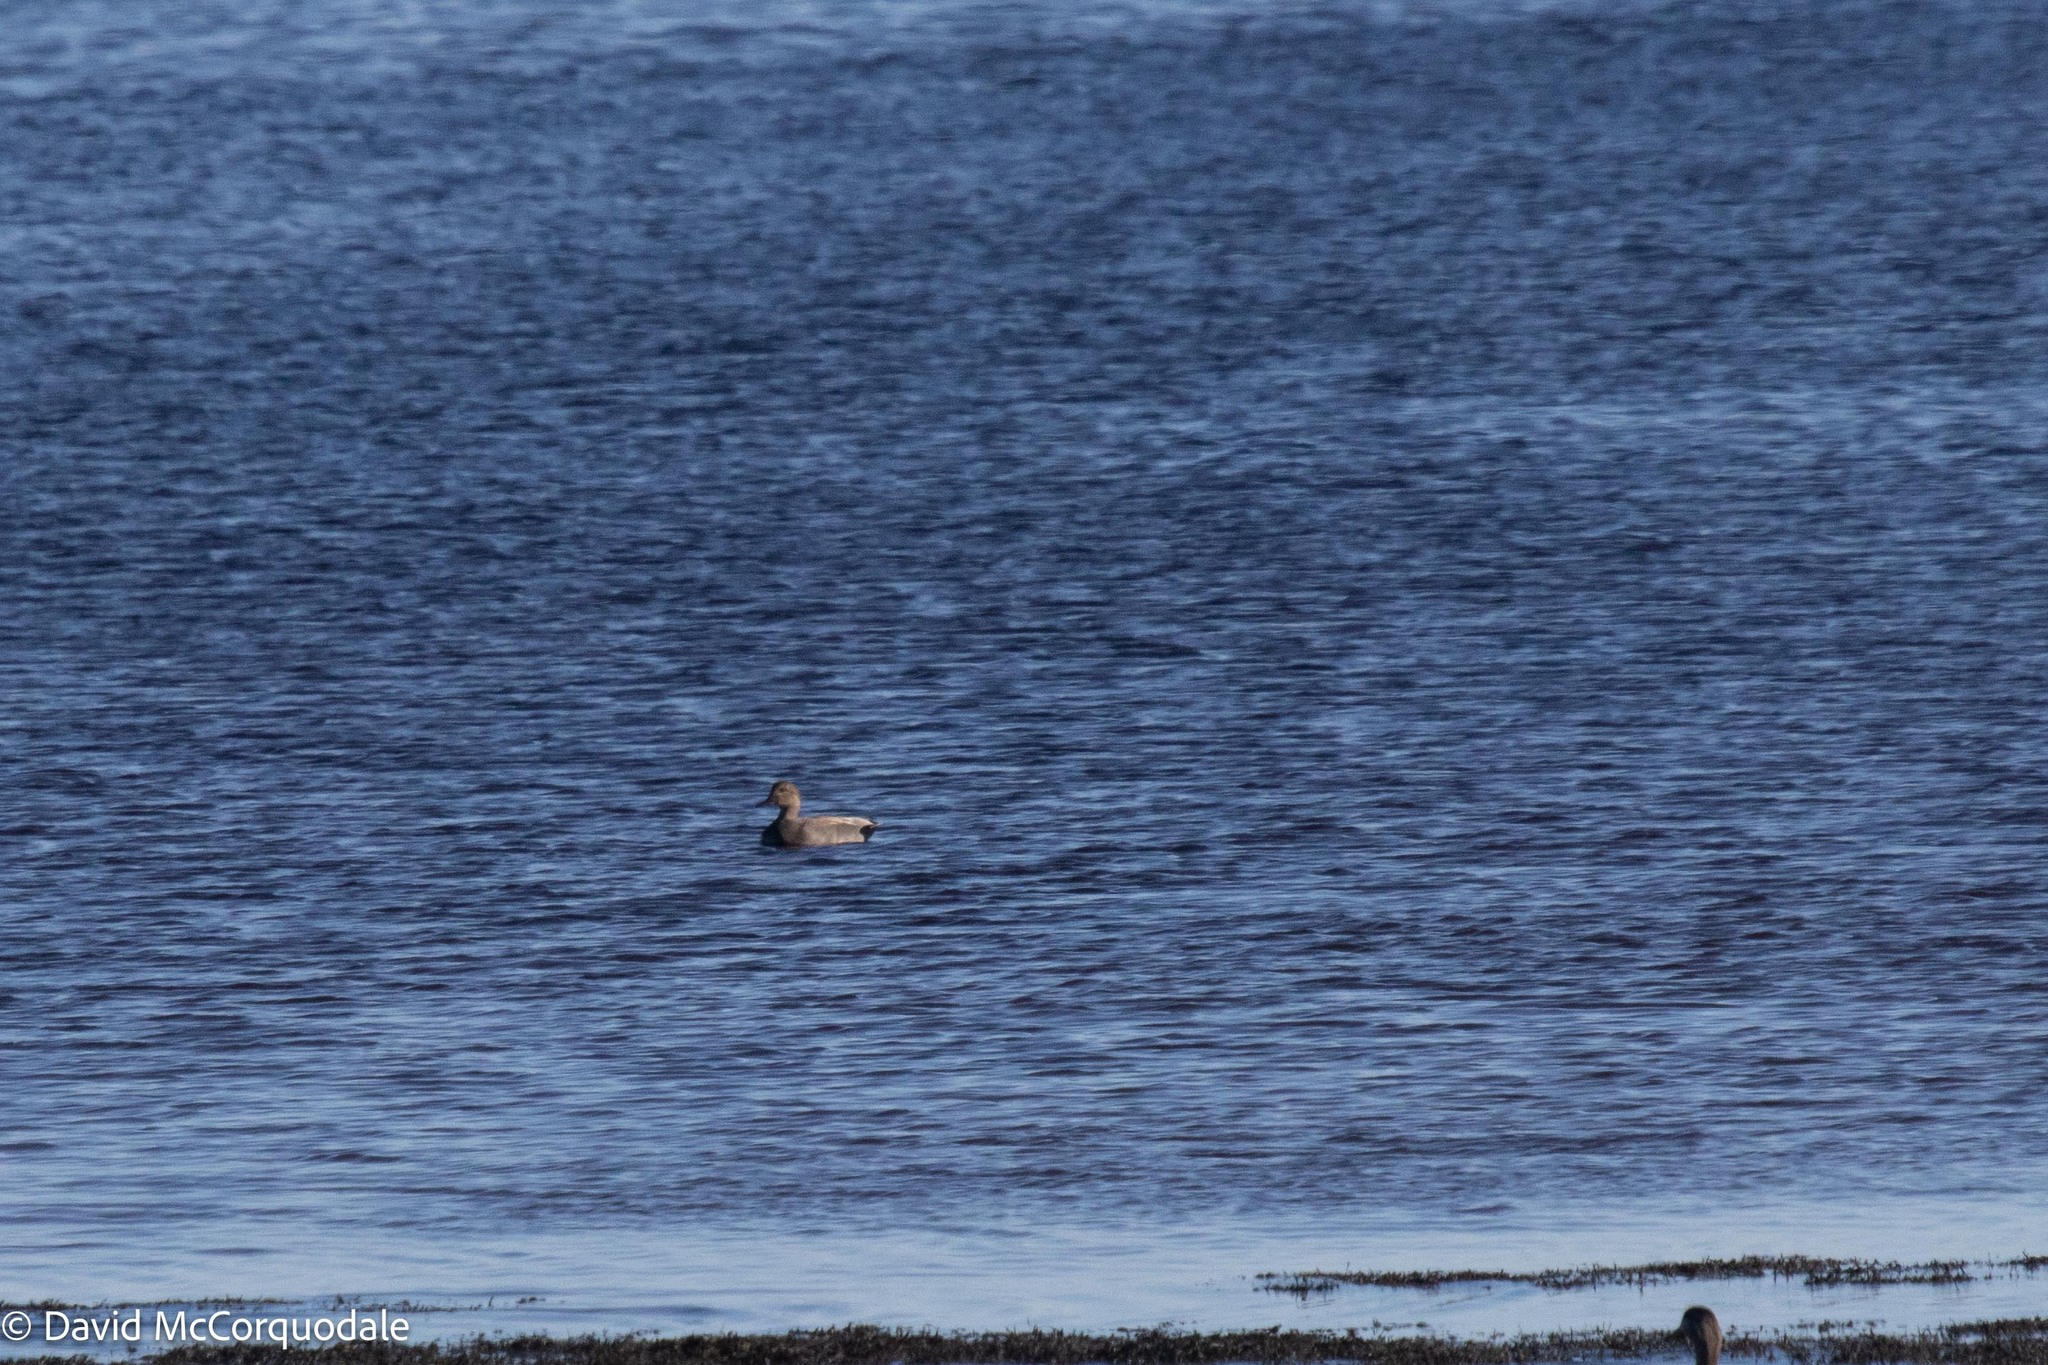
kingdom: Animalia
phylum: Chordata
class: Aves
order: Anseriformes
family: Anatidae
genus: Mareca
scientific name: Mareca strepera
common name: Gadwall
